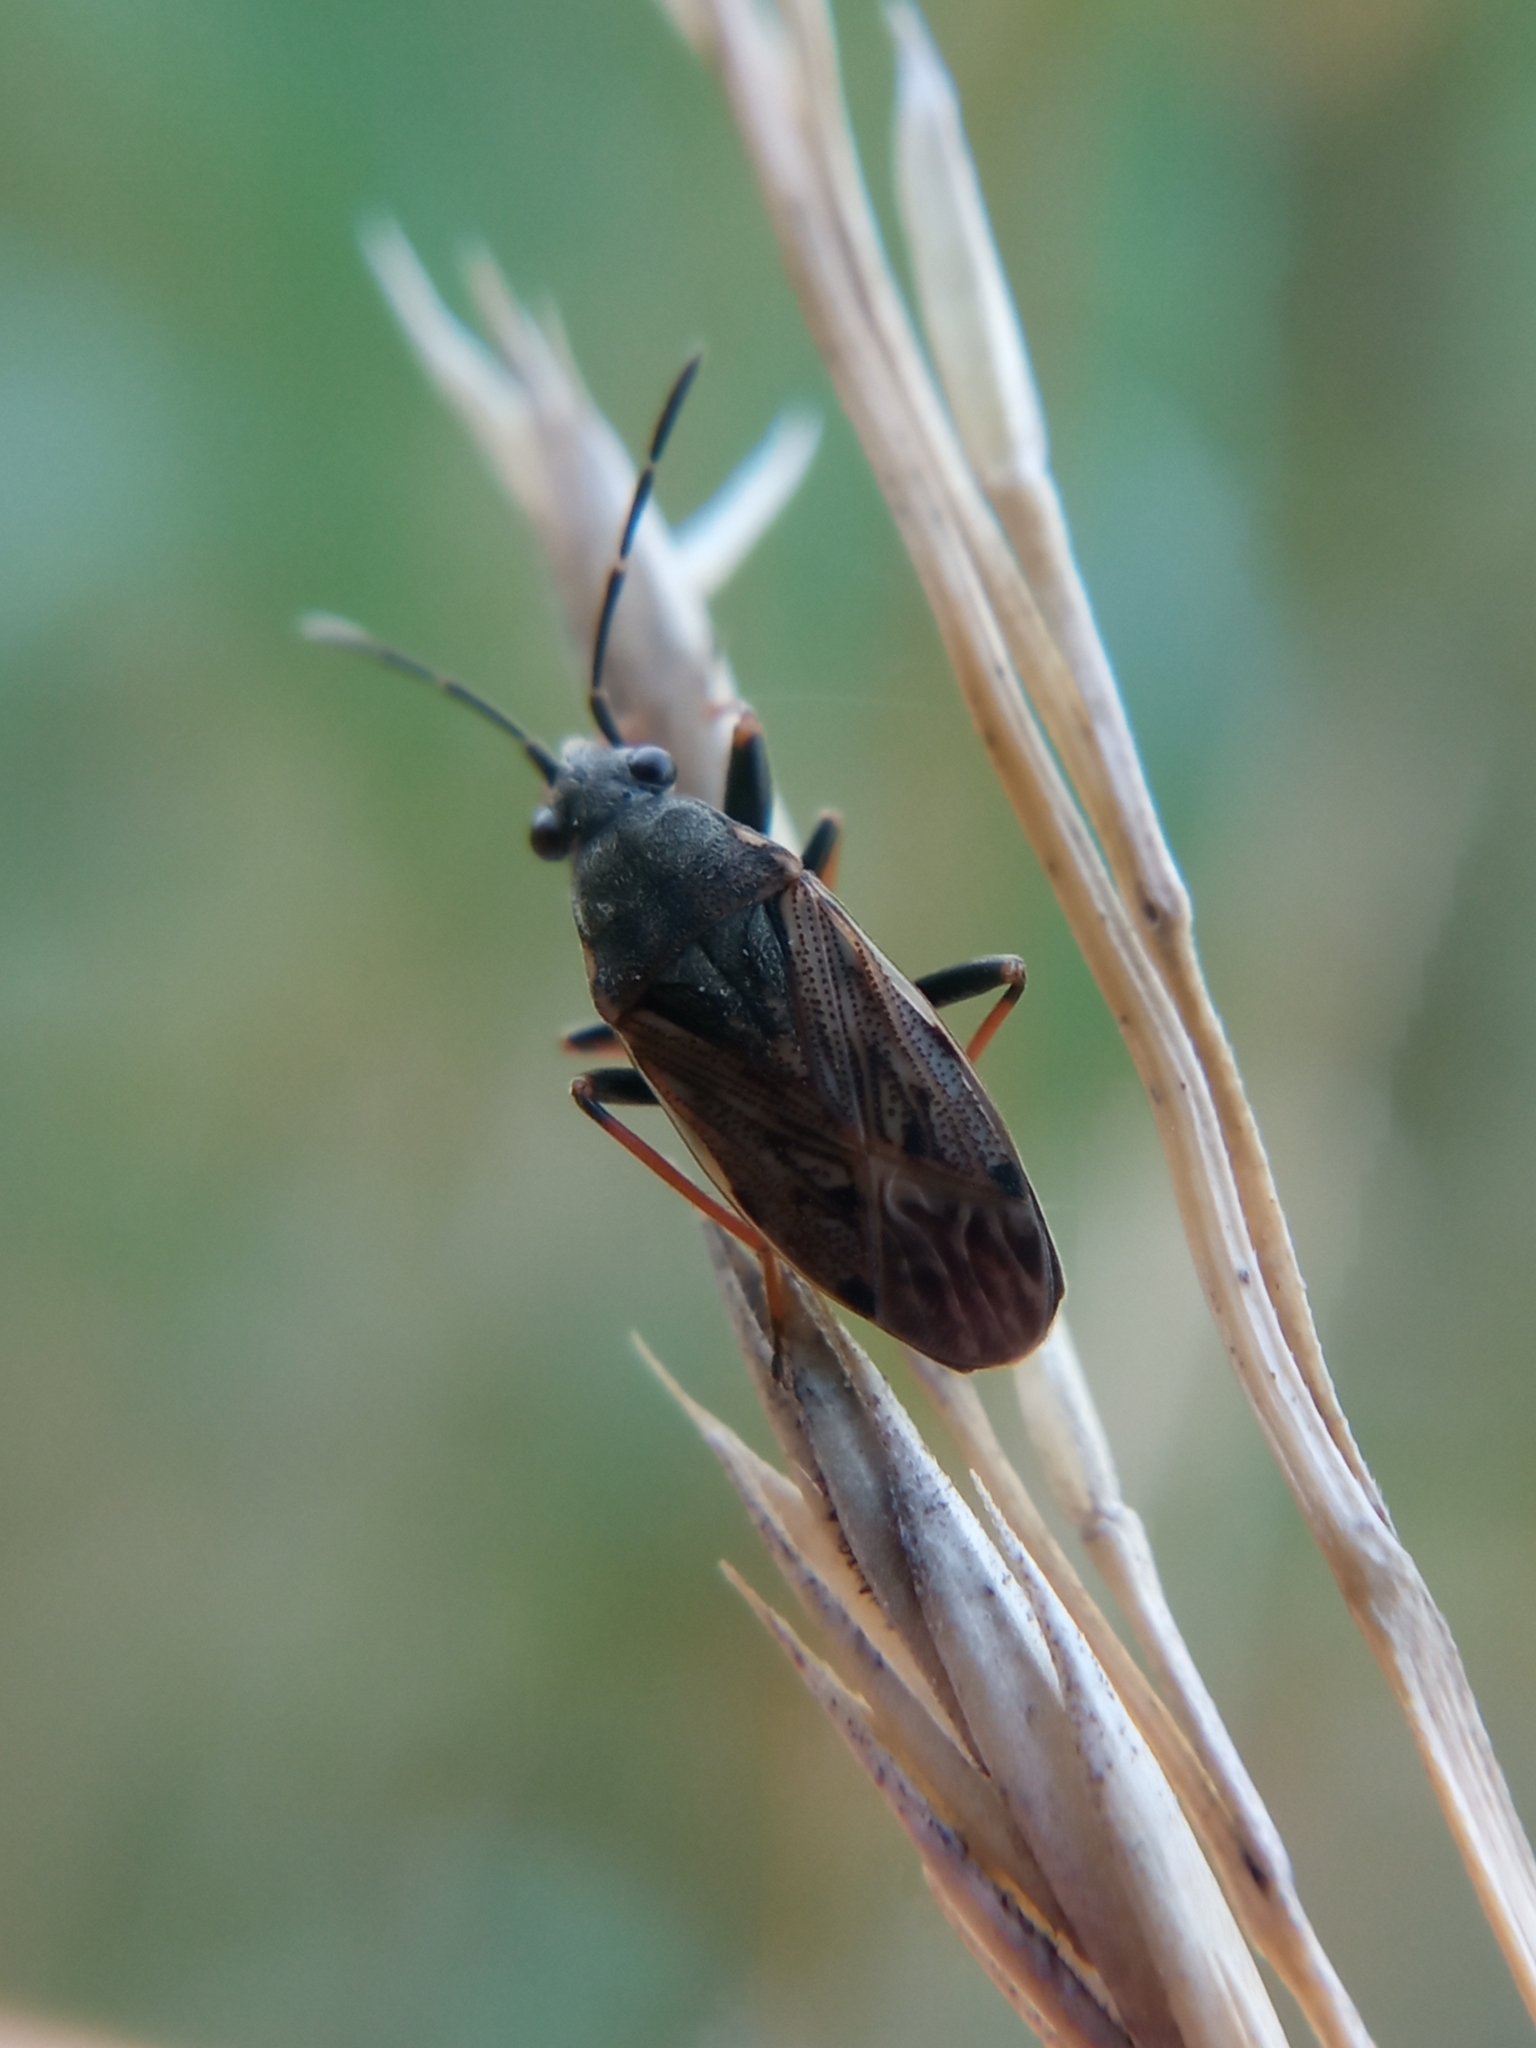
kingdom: Animalia
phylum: Arthropoda
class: Insecta
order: Hemiptera
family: Rhyparochromidae
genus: Peritrechus
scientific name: Peritrechus gracilicornis
